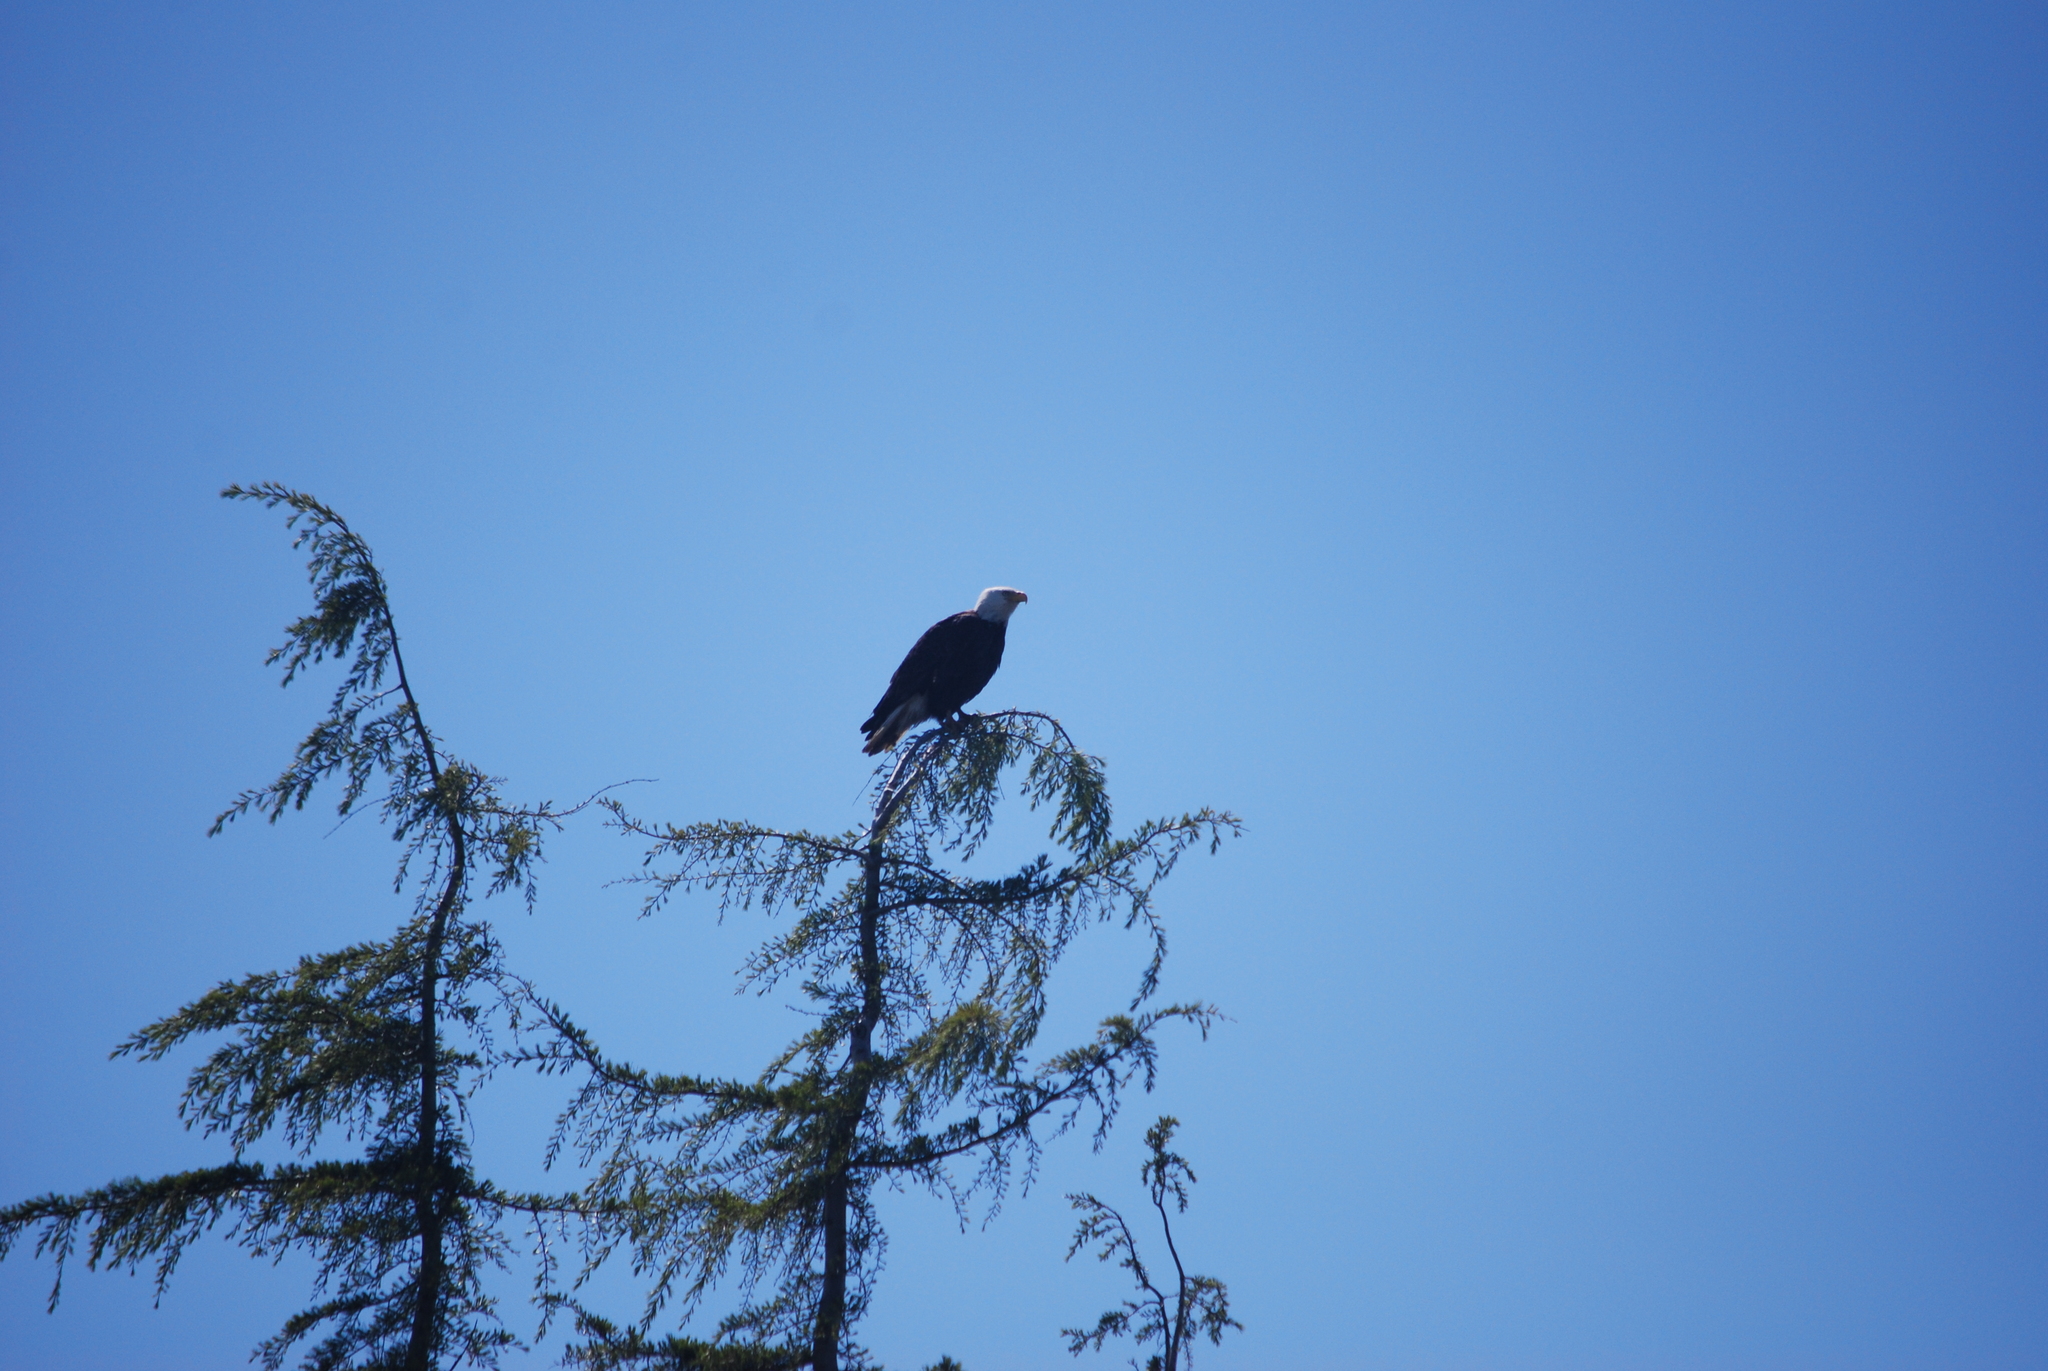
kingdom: Animalia
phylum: Chordata
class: Aves
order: Accipitriformes
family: Accipitridae
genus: Haliaeetus
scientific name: Haliaeetus leucocephalus
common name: Bald eagle
